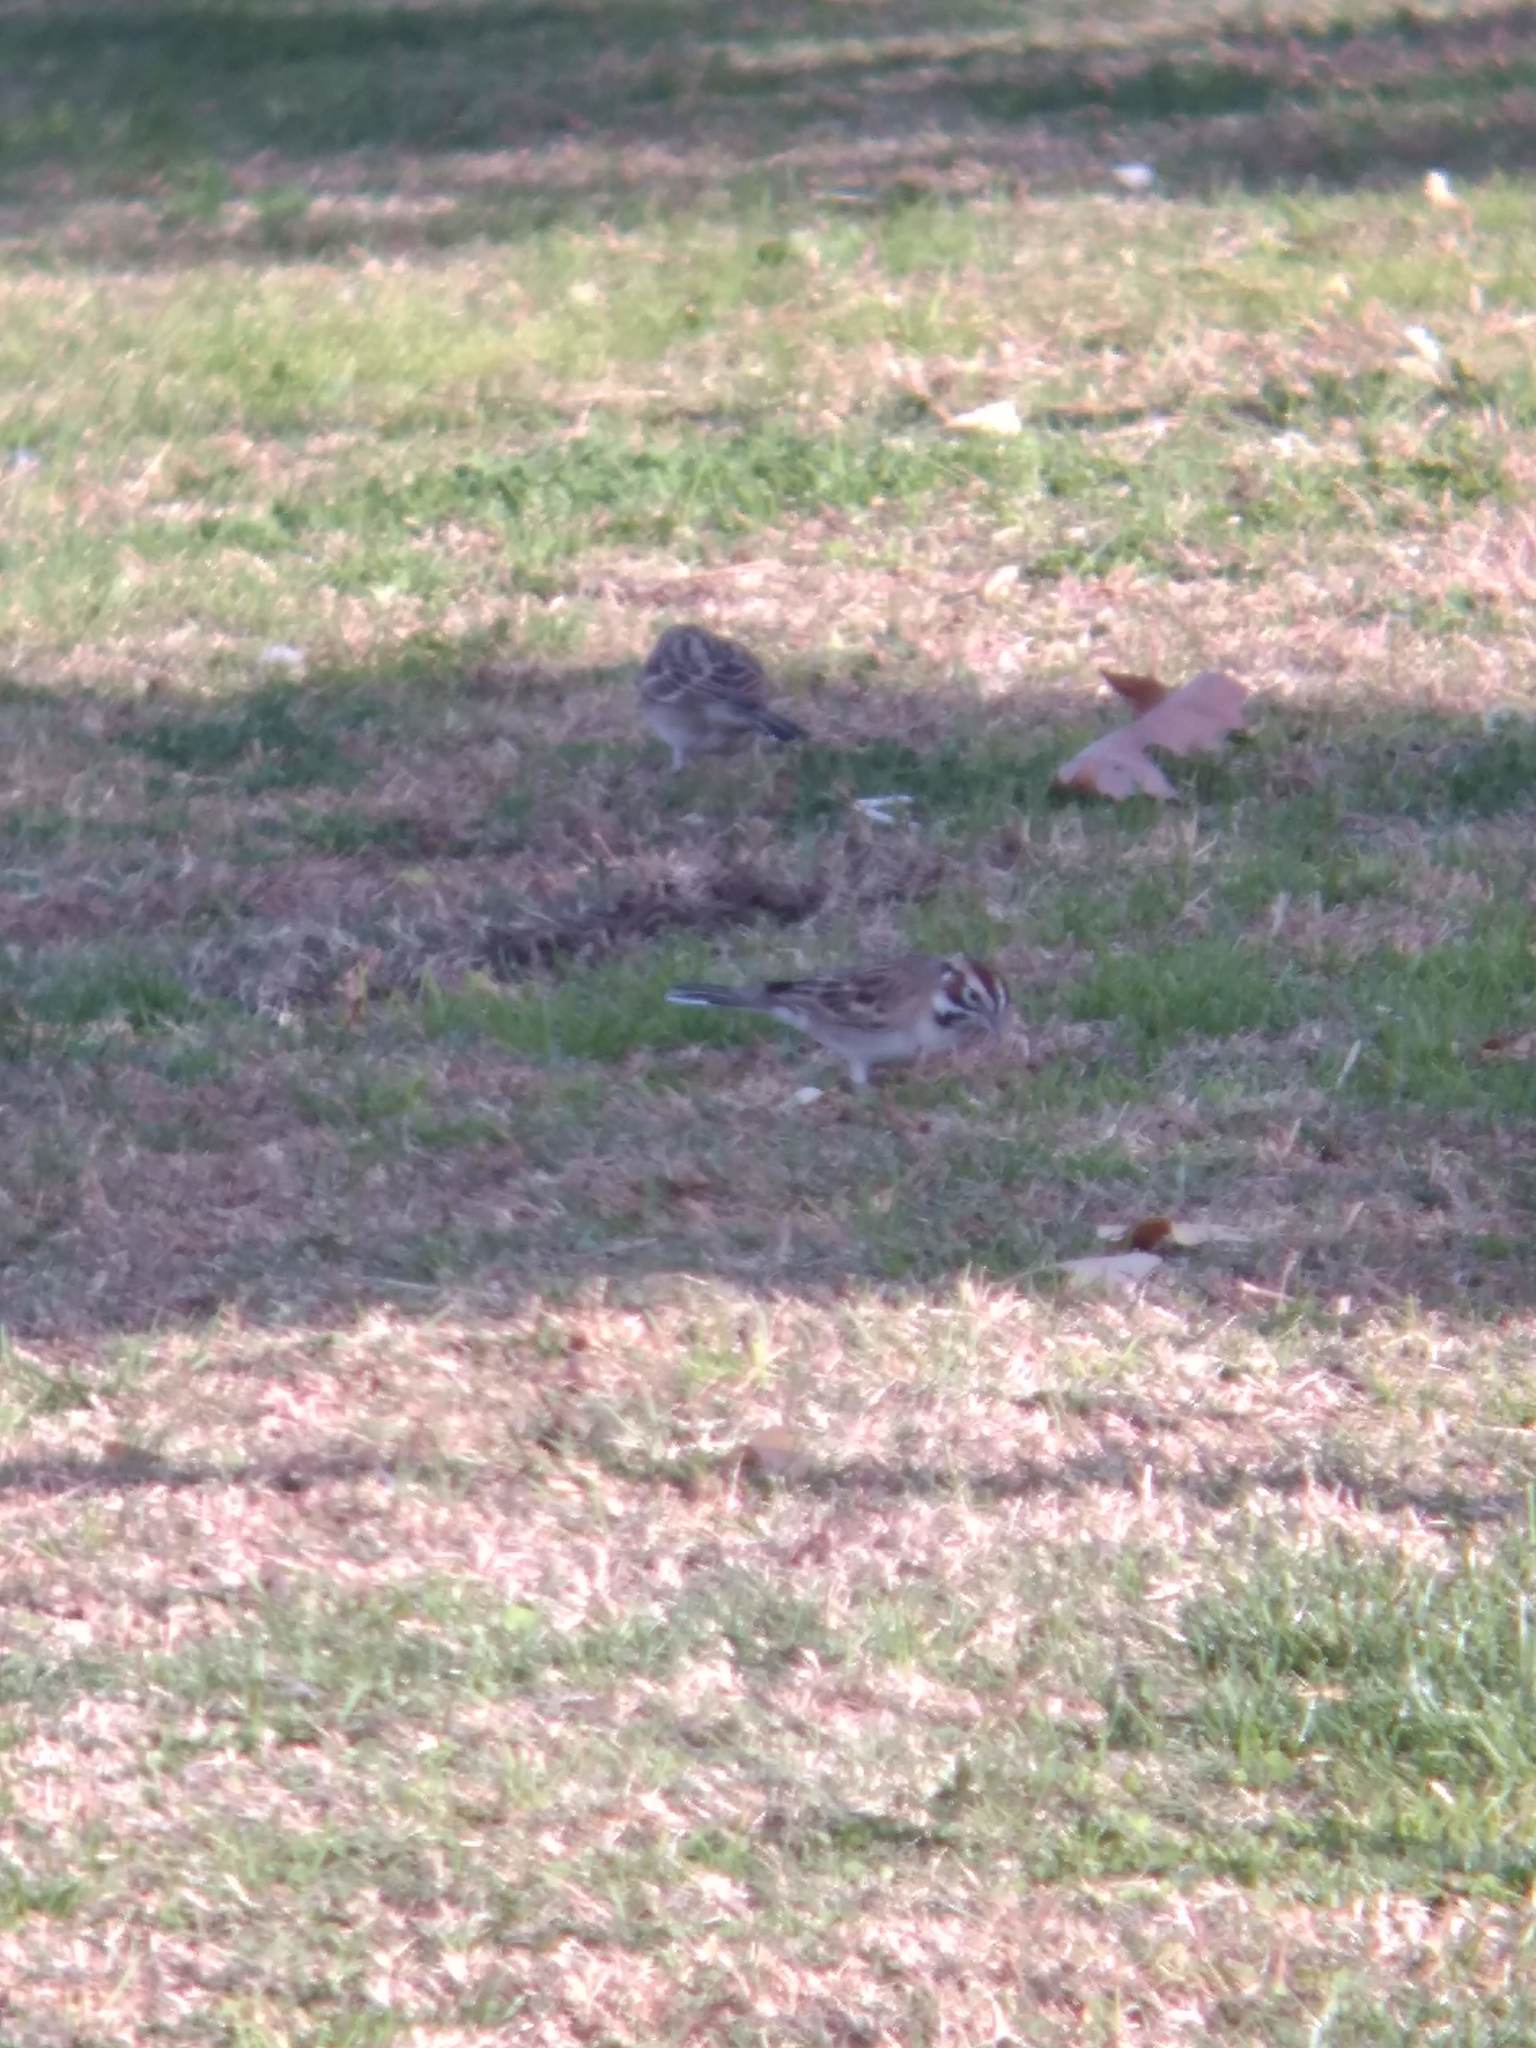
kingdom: Animalia
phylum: Chordata
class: Aves
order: Passeriformes
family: Passerellidae
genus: Chondestes
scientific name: Chondestes grammacus
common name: Lark sparrow
